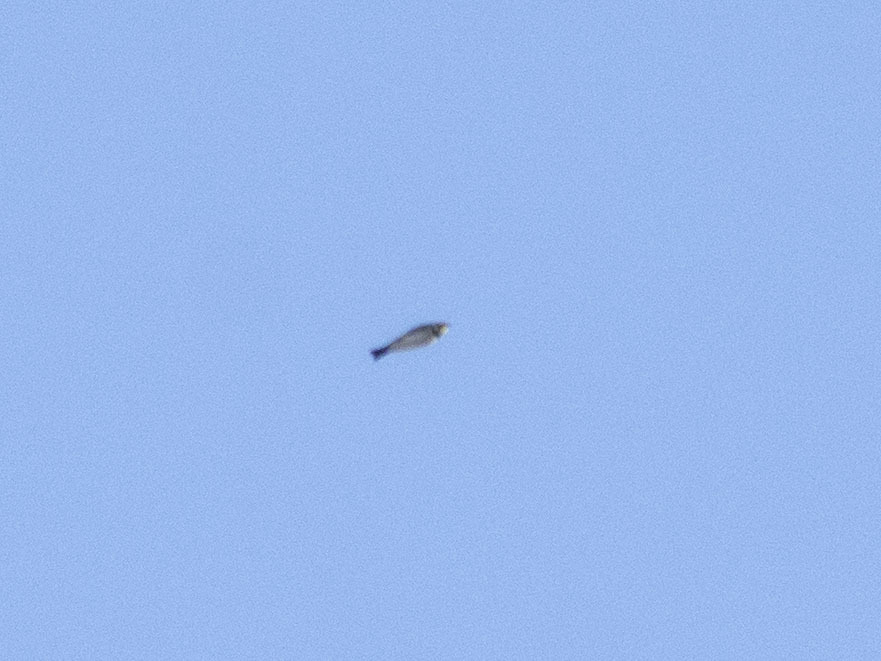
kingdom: Animalia
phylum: Chordata
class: Aves
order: Passeriformes
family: Alaudidae
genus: Eremophila
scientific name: Eremophila alpestris
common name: Horned lark
